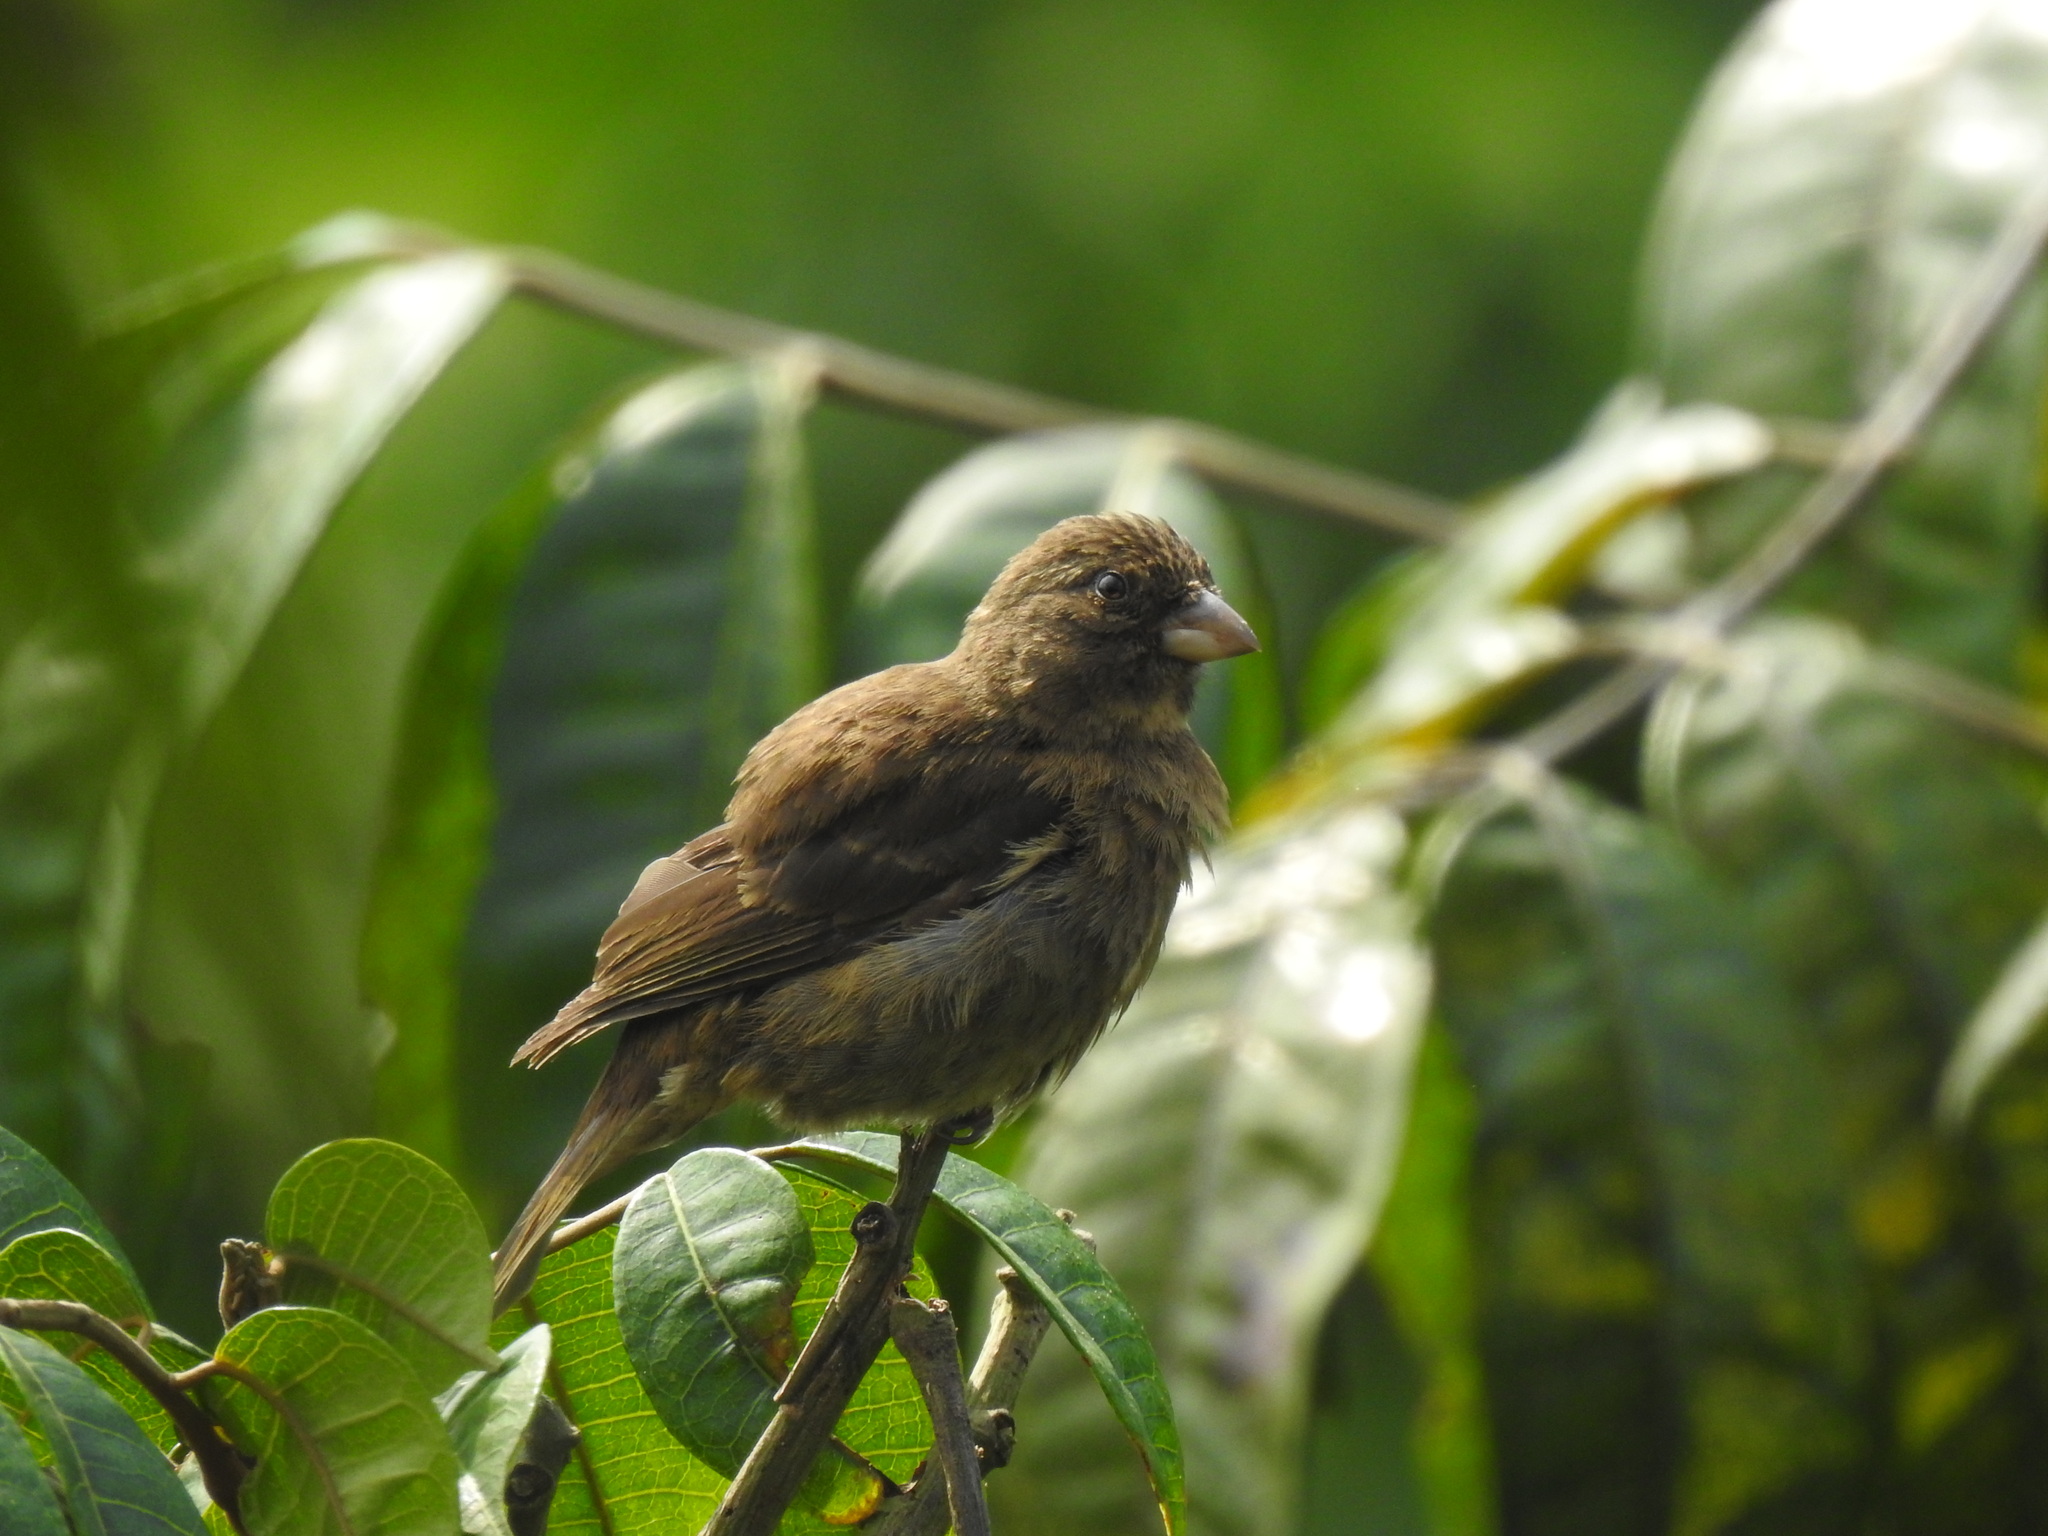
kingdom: Animalia
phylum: Chordata
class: Aves
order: Passeriformes
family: Fringillidae
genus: Crithagra
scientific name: Crithagra rufobrunnea
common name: Principe seedeater
